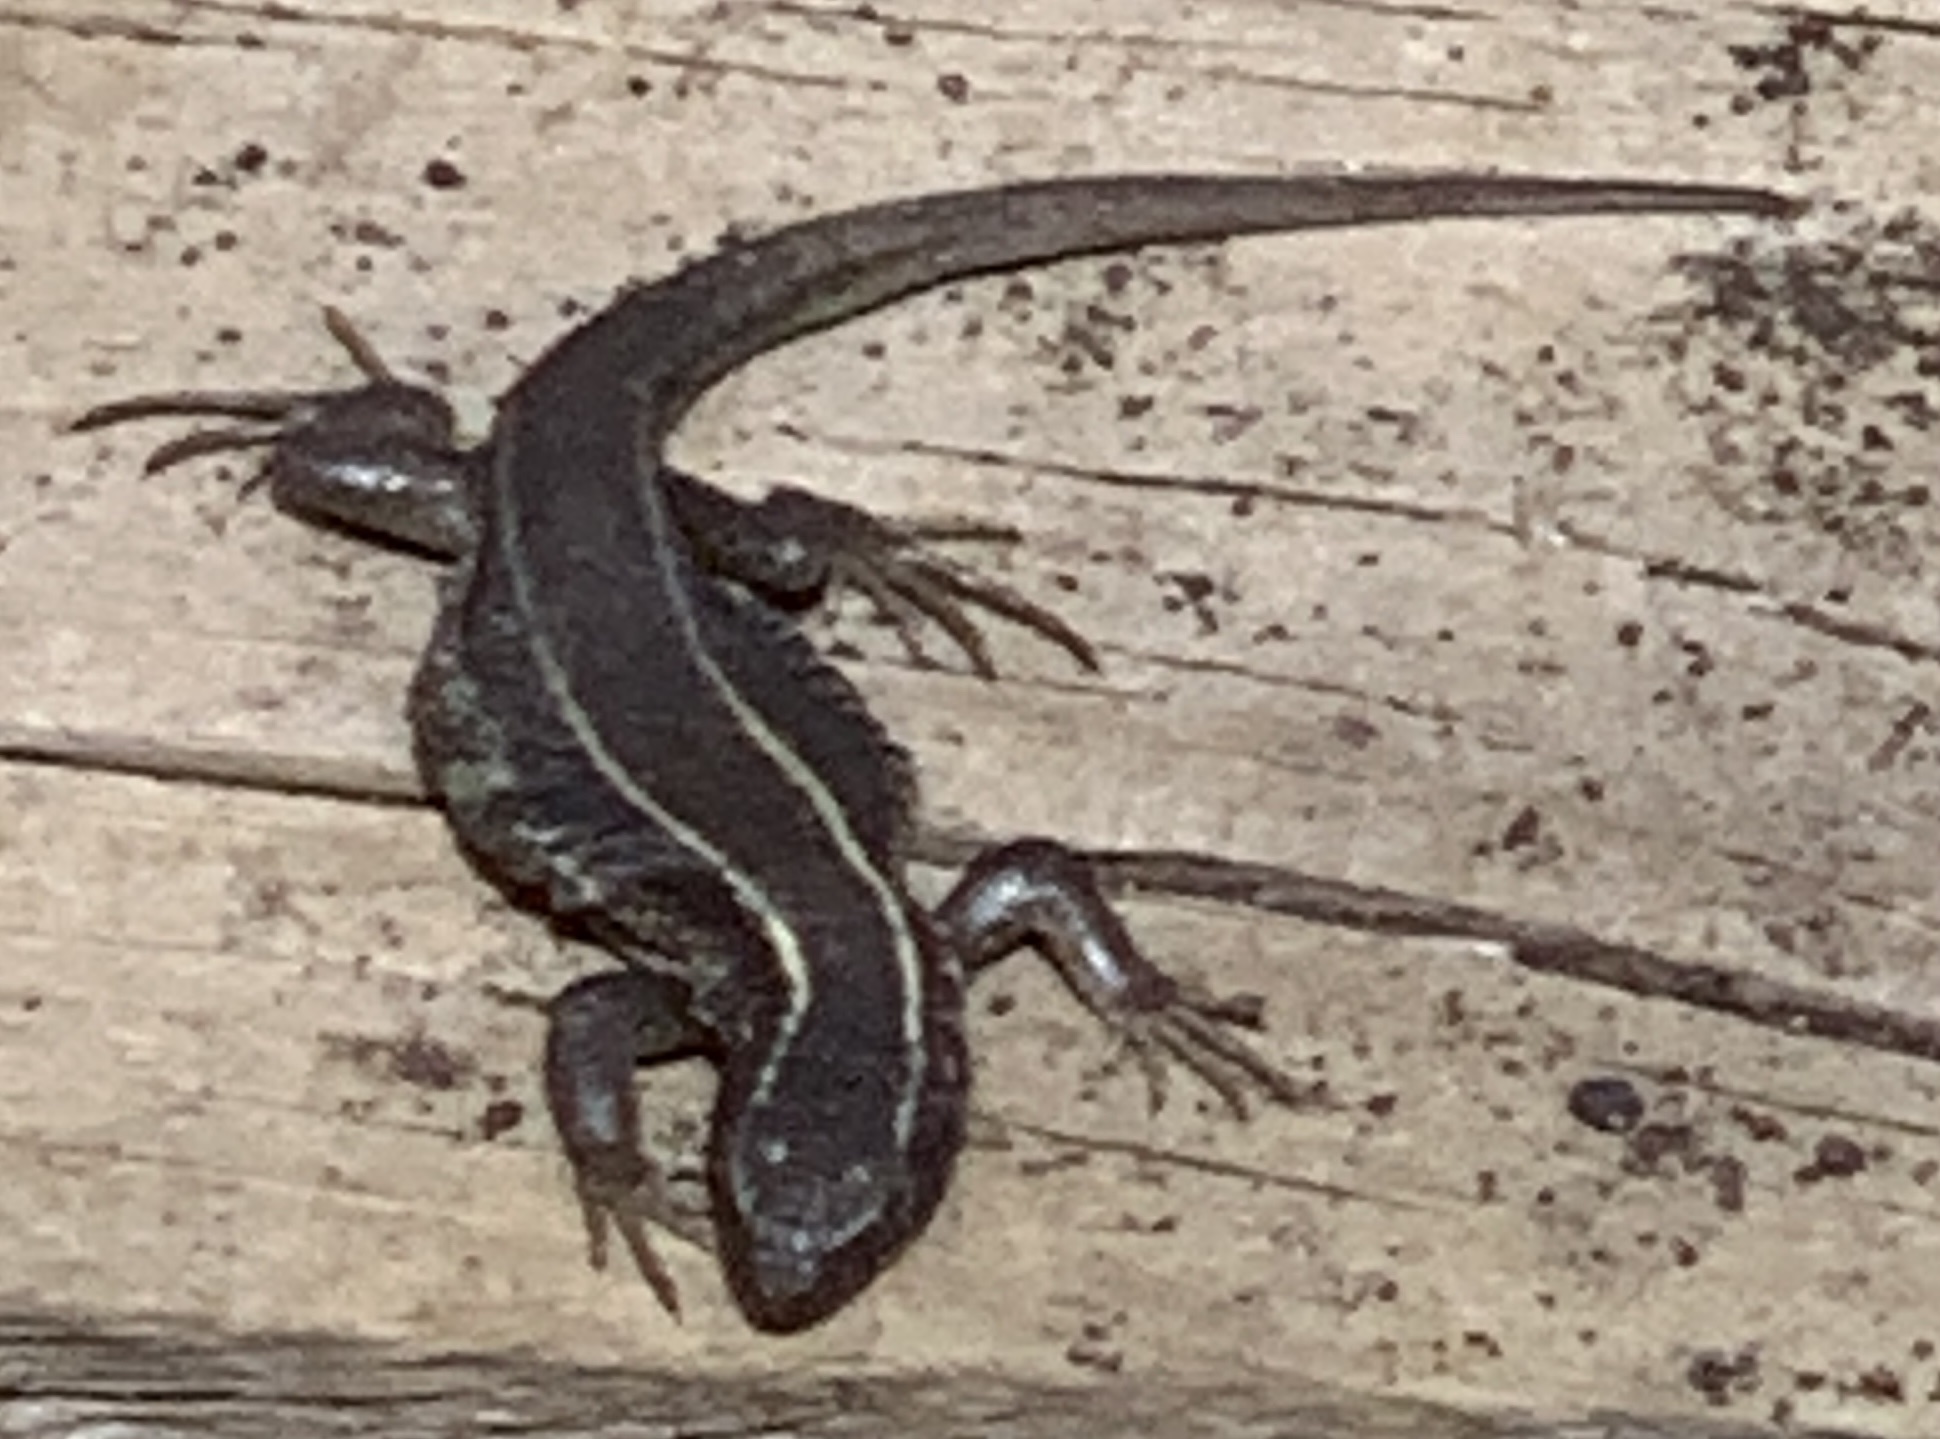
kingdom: Animalia
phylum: Chordata
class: Squamata
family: Liolaemidae
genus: Liolaemus
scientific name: Liolaemus pictus
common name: Painted tree iguana
